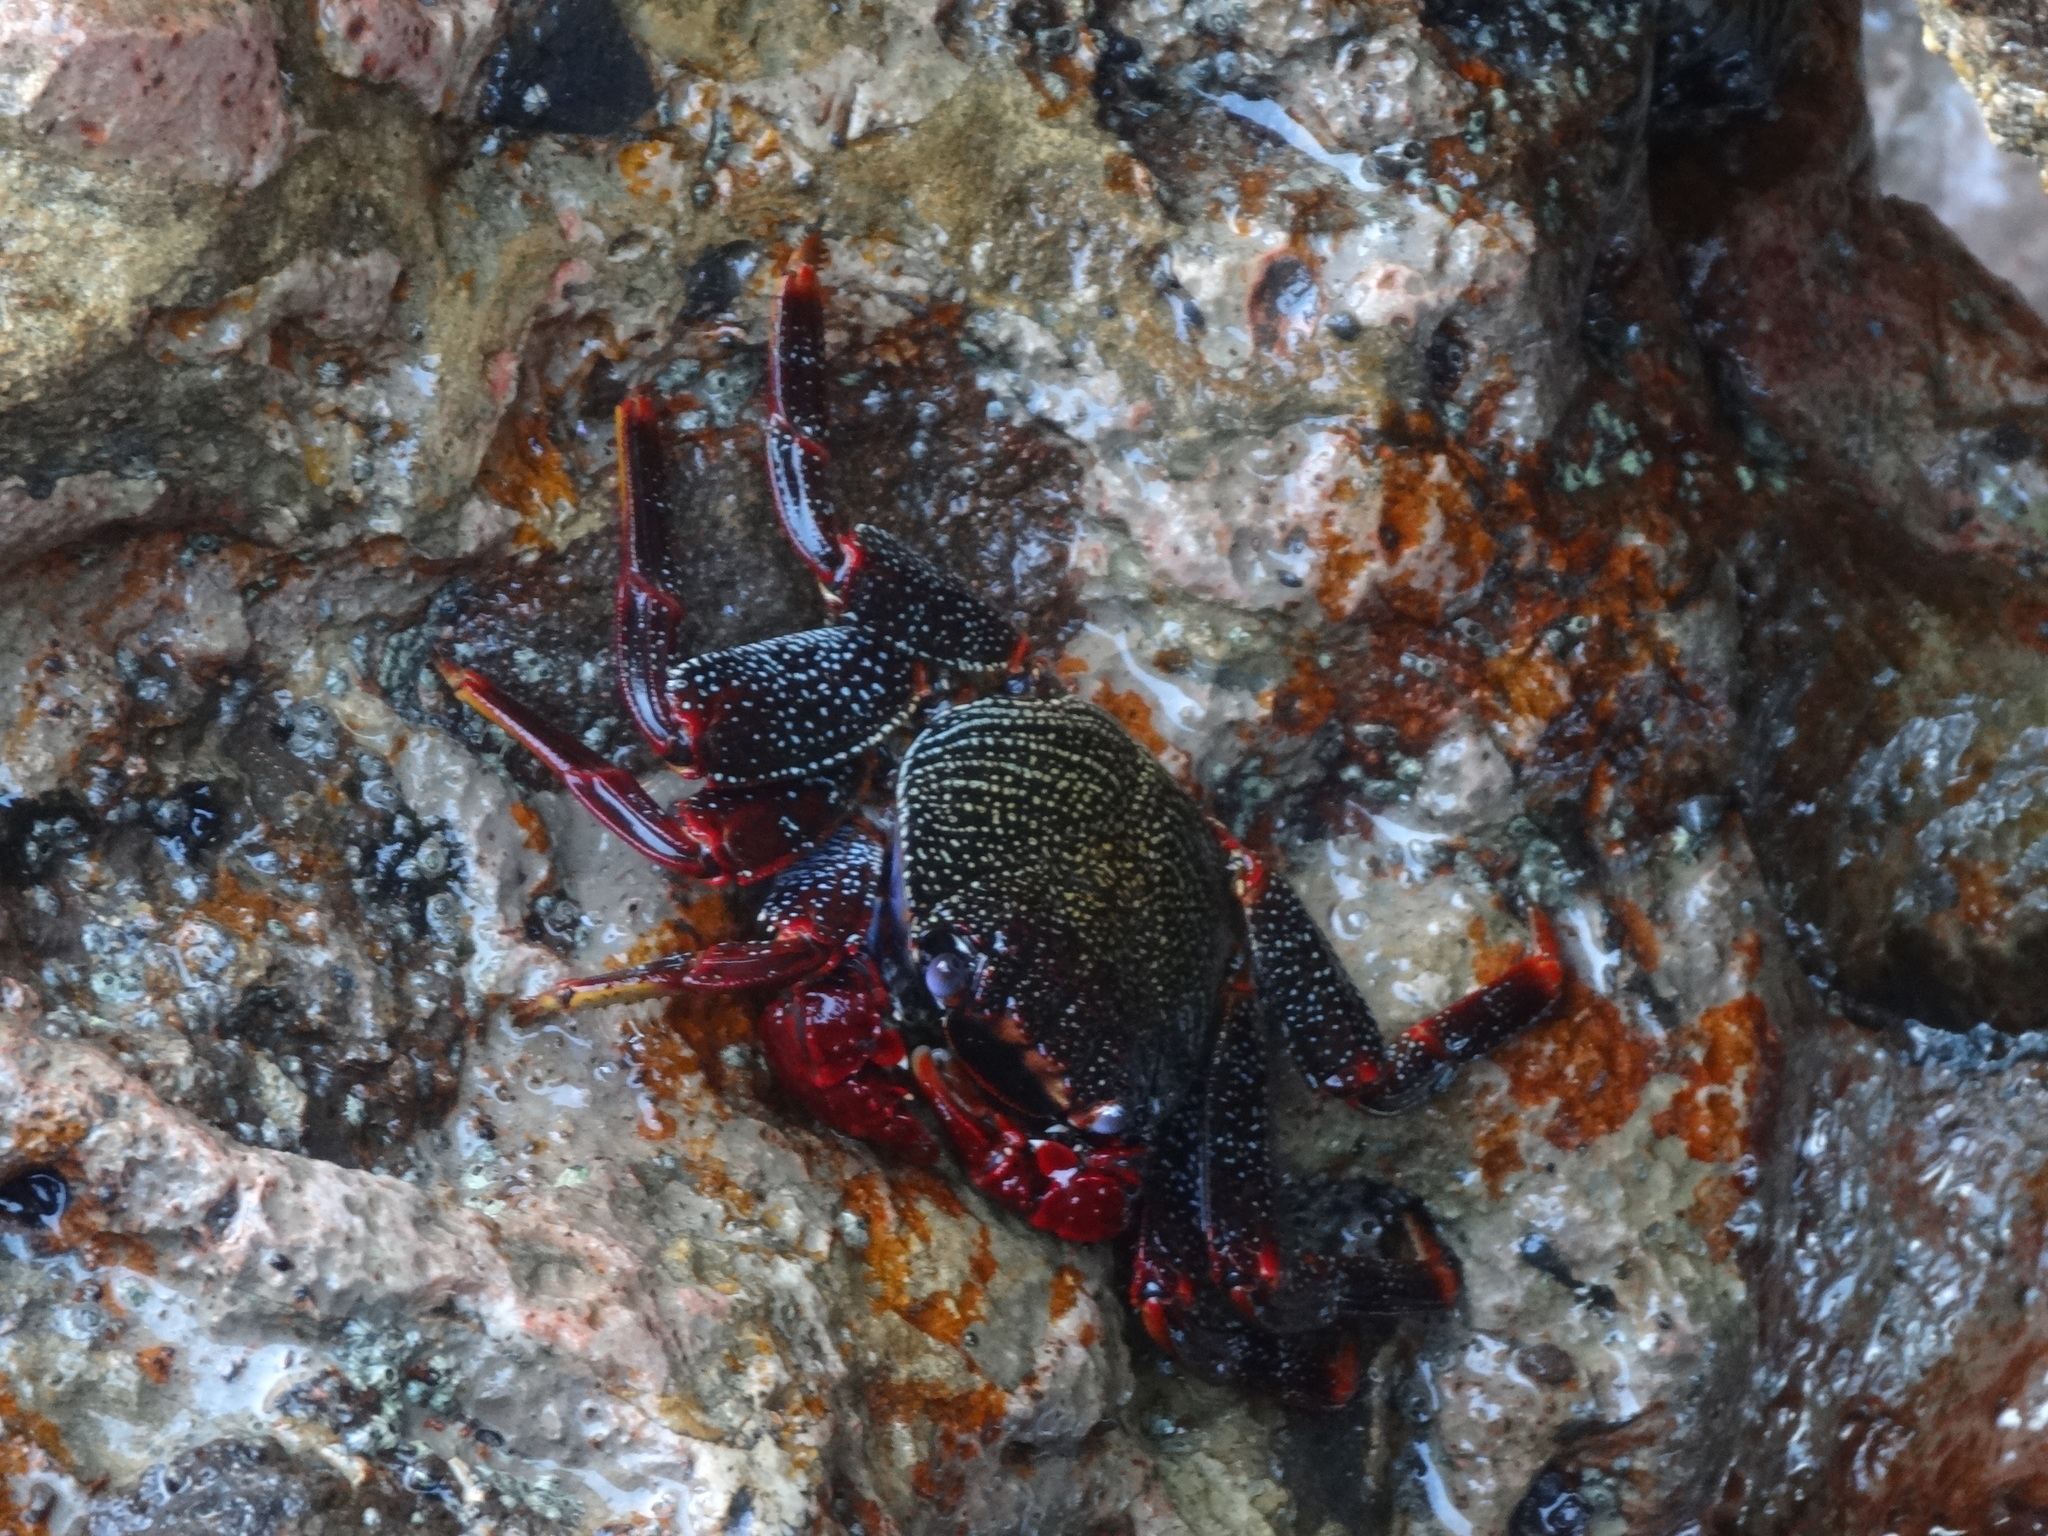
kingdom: Animalia
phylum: Arthropoda
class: Malacostraca
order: Decapoda
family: Grapsidae
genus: Grapsus
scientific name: Grapsus adscensionis
